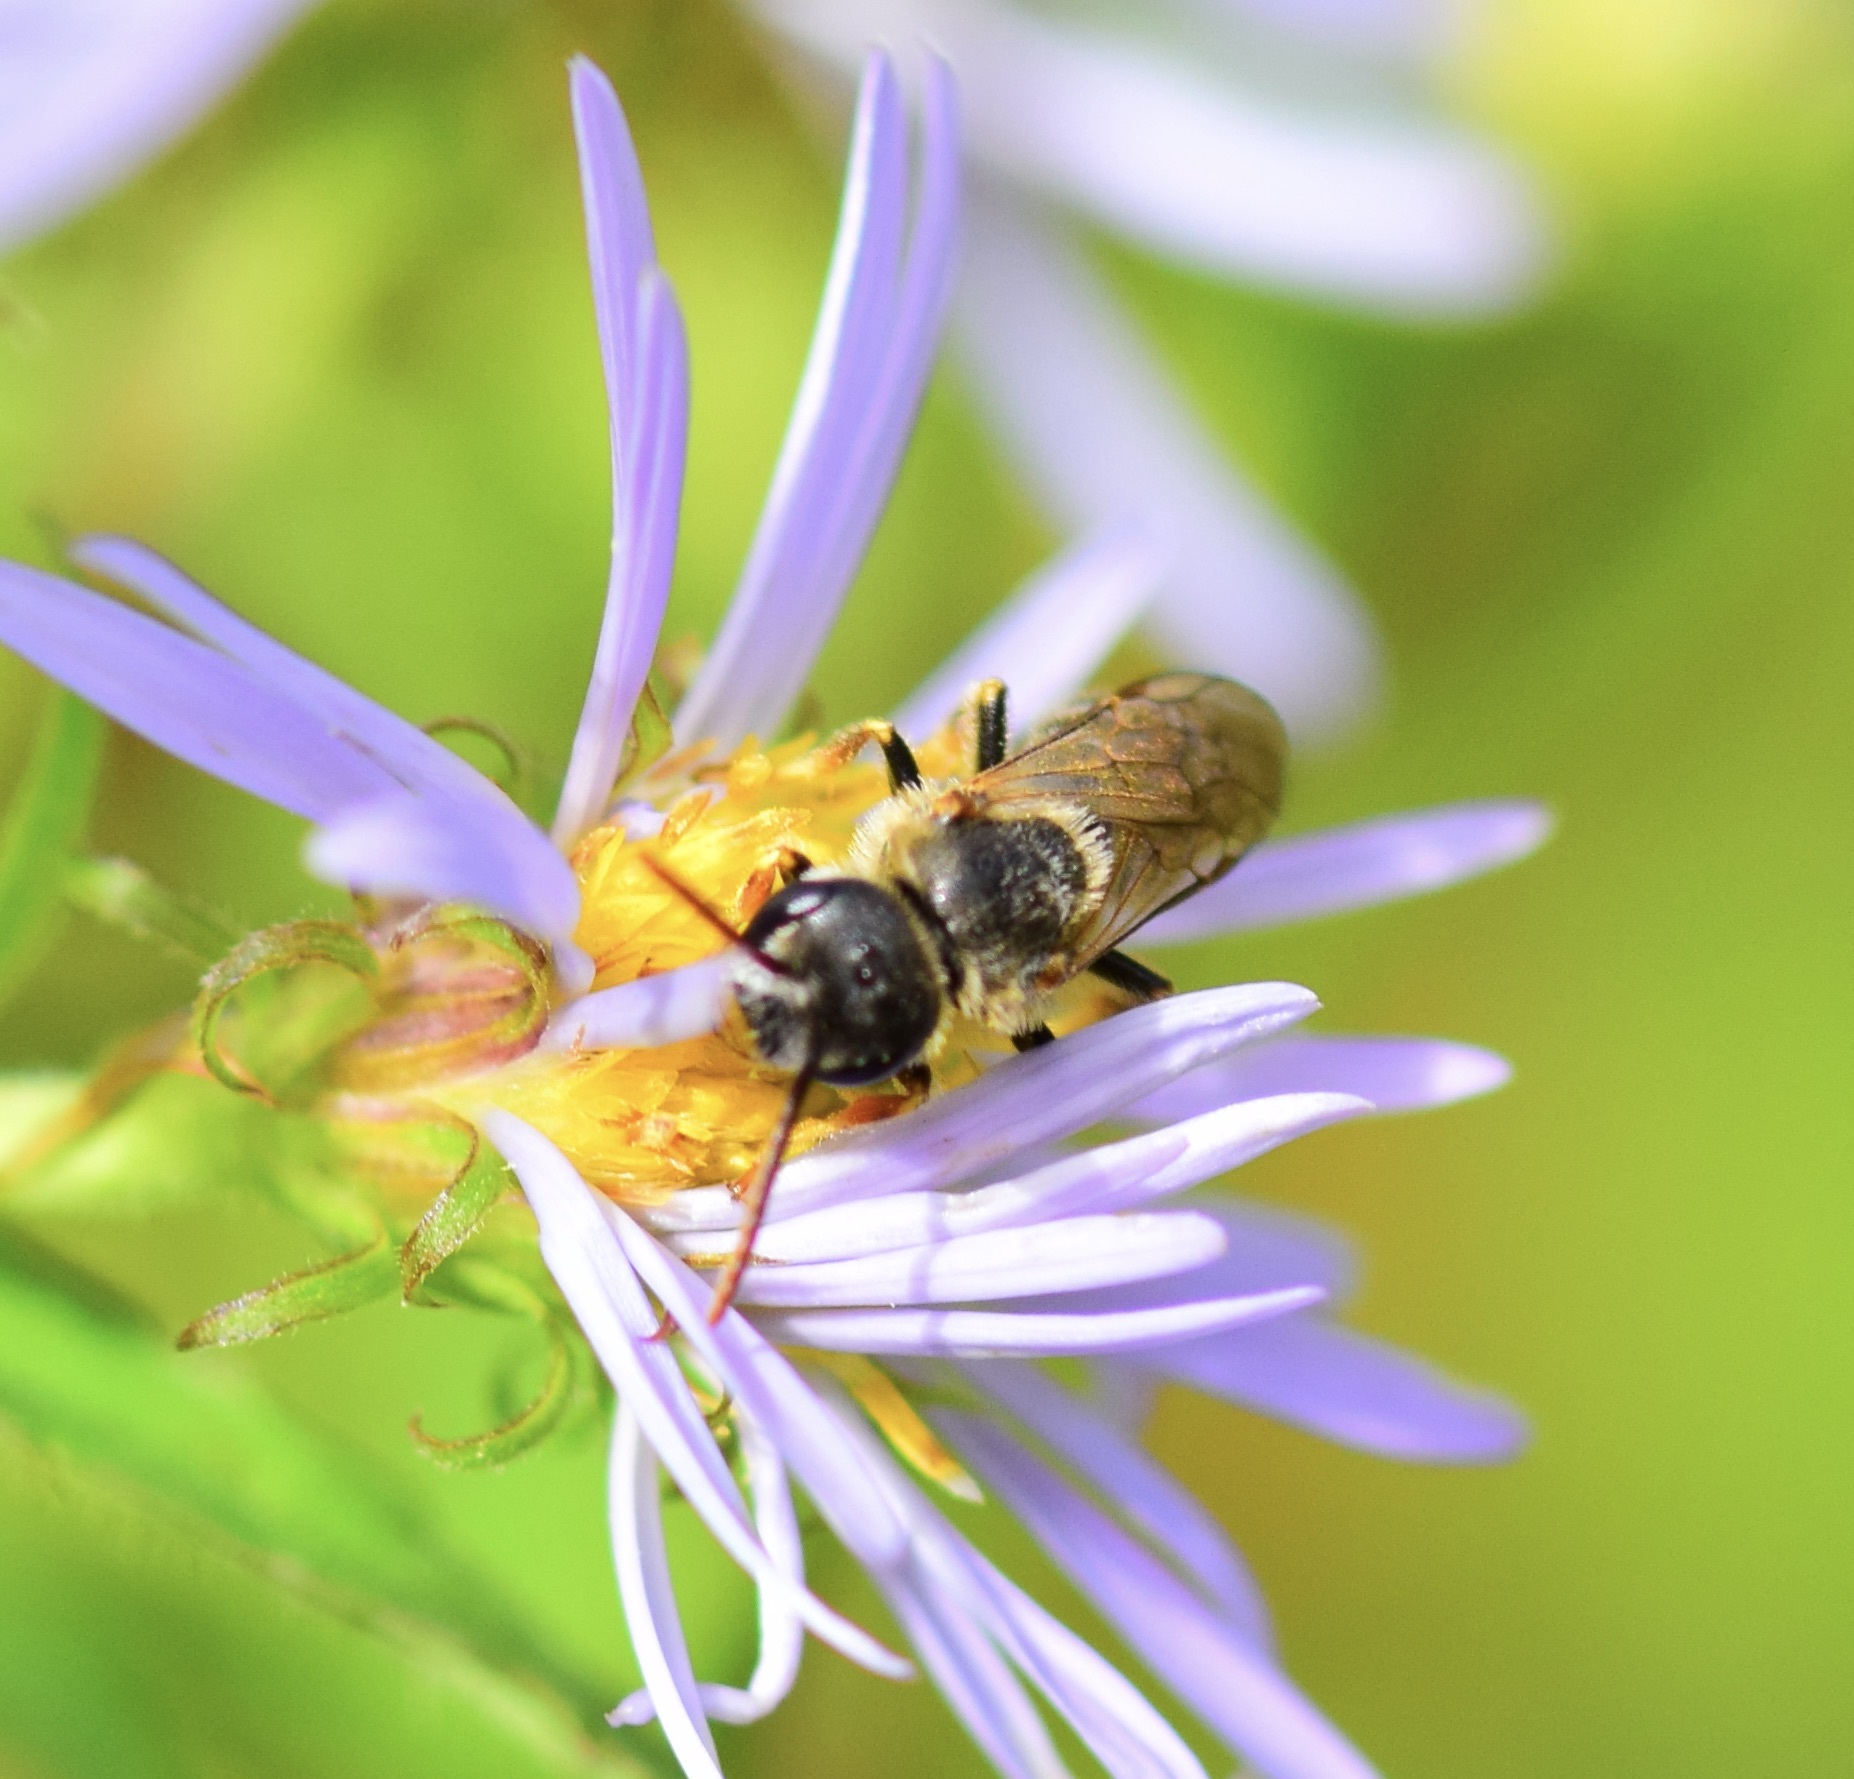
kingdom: Animalia
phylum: Arthropoda
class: Insecta
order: Hymenoptera
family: Halictidae
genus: Halictus
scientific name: Halictus ligatus
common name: Ligated furrow bee
